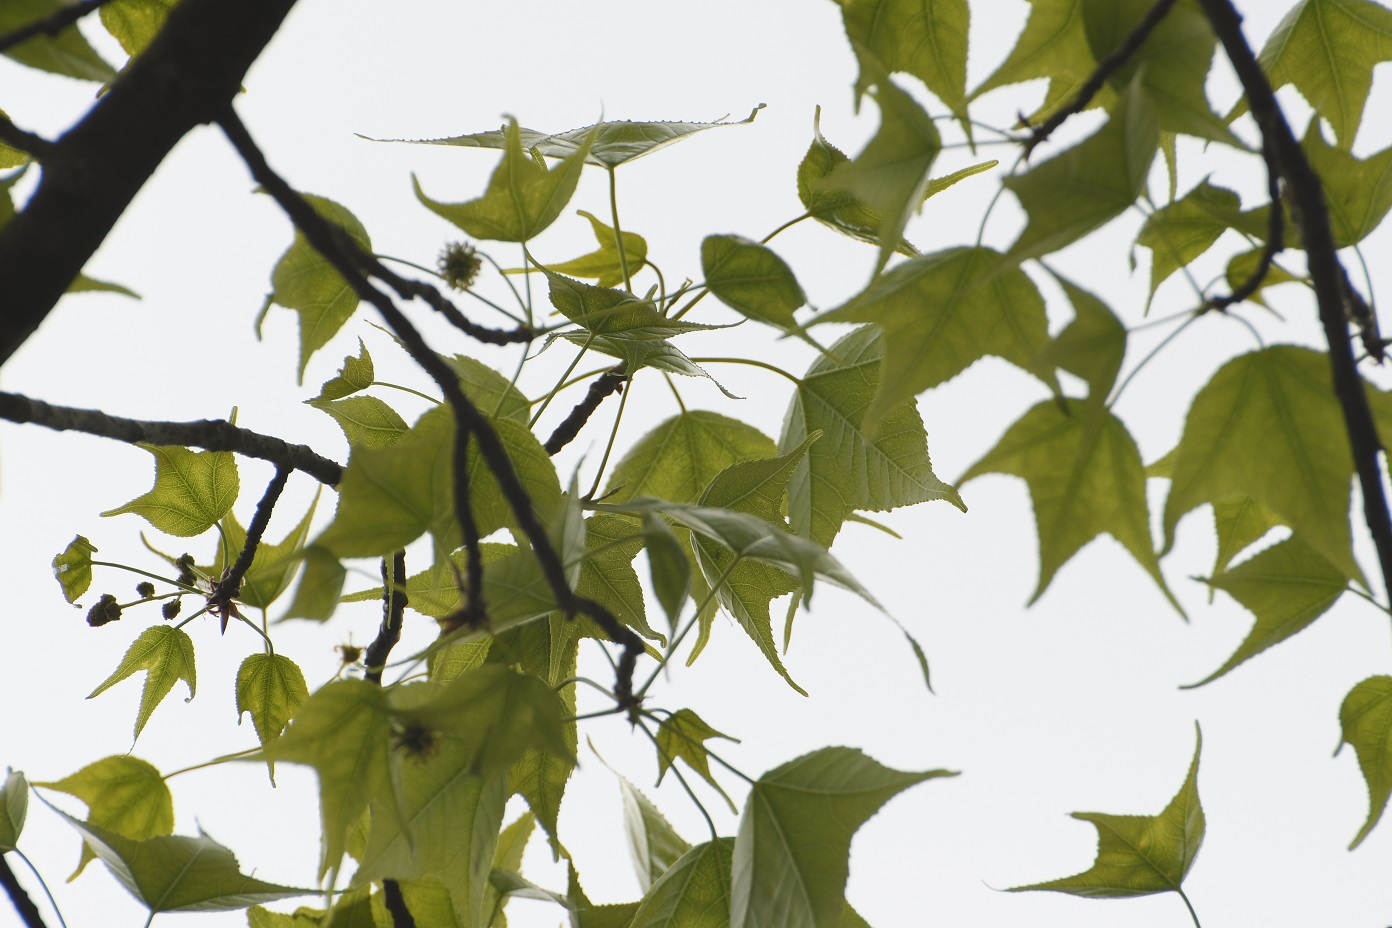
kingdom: Plantae
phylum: Tracheophyta
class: Magnoliopsida
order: Saxifragales
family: Altingiaceae
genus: Liquidambar
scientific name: Liquidambar styraciflua
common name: Sweet gum
